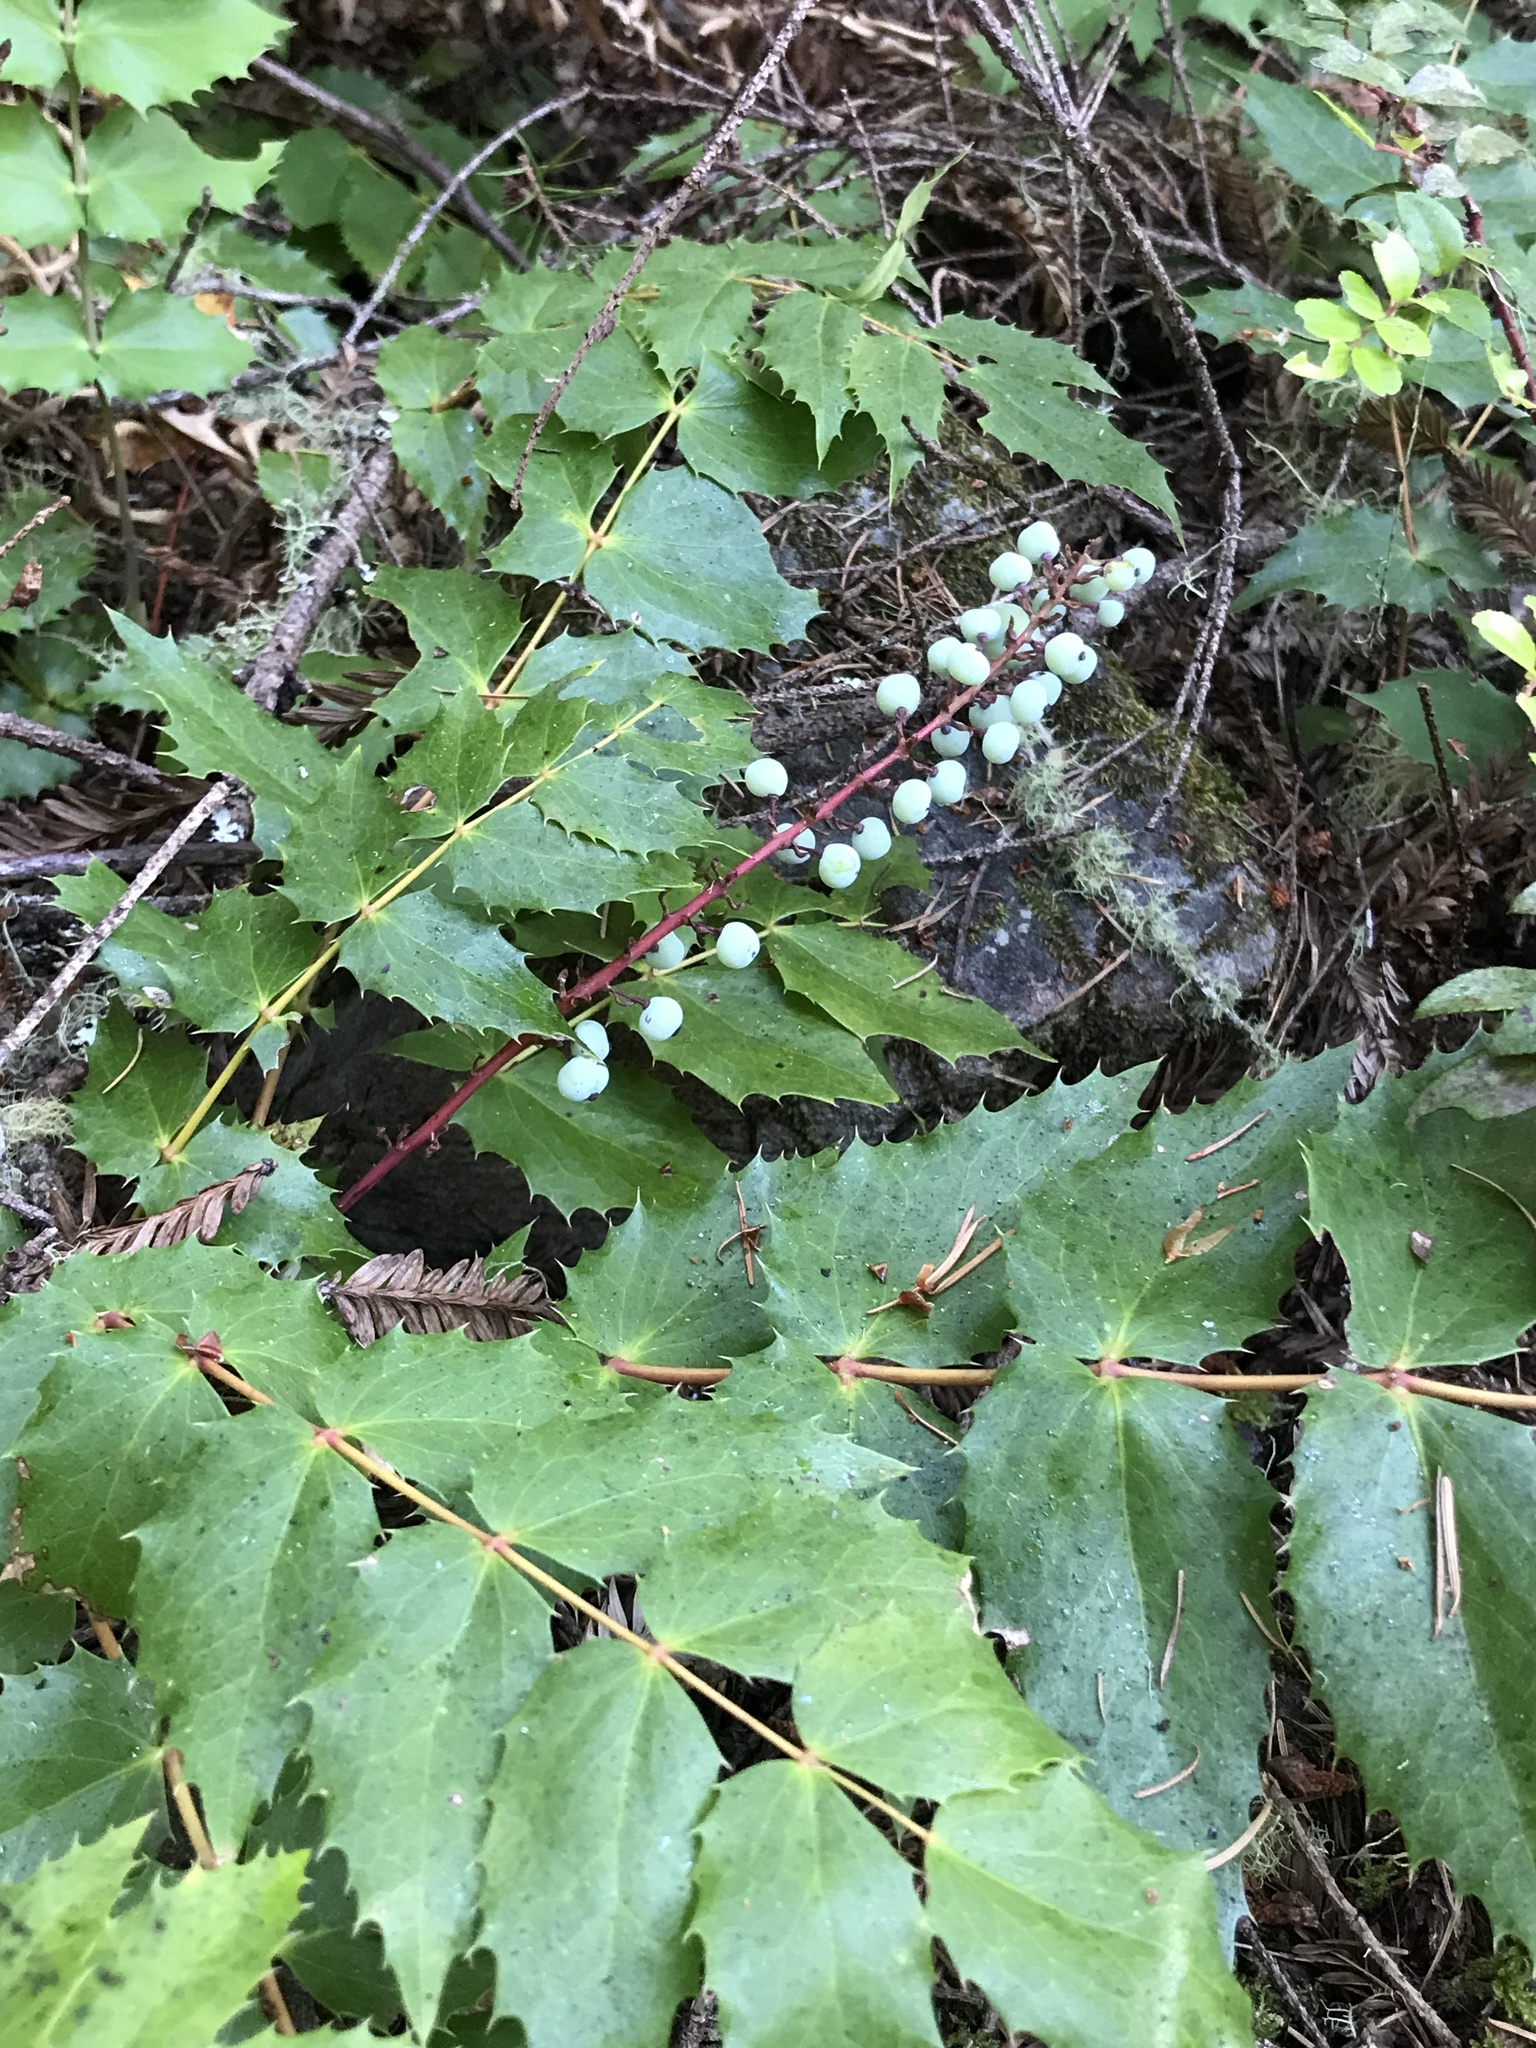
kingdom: Plantae
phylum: Tracheophyta
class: Magnoliopsida
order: Ranunculales
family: Berberidaceae
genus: Mahonia
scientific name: Mahonia nervosa
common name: Cascade oregon-grape
